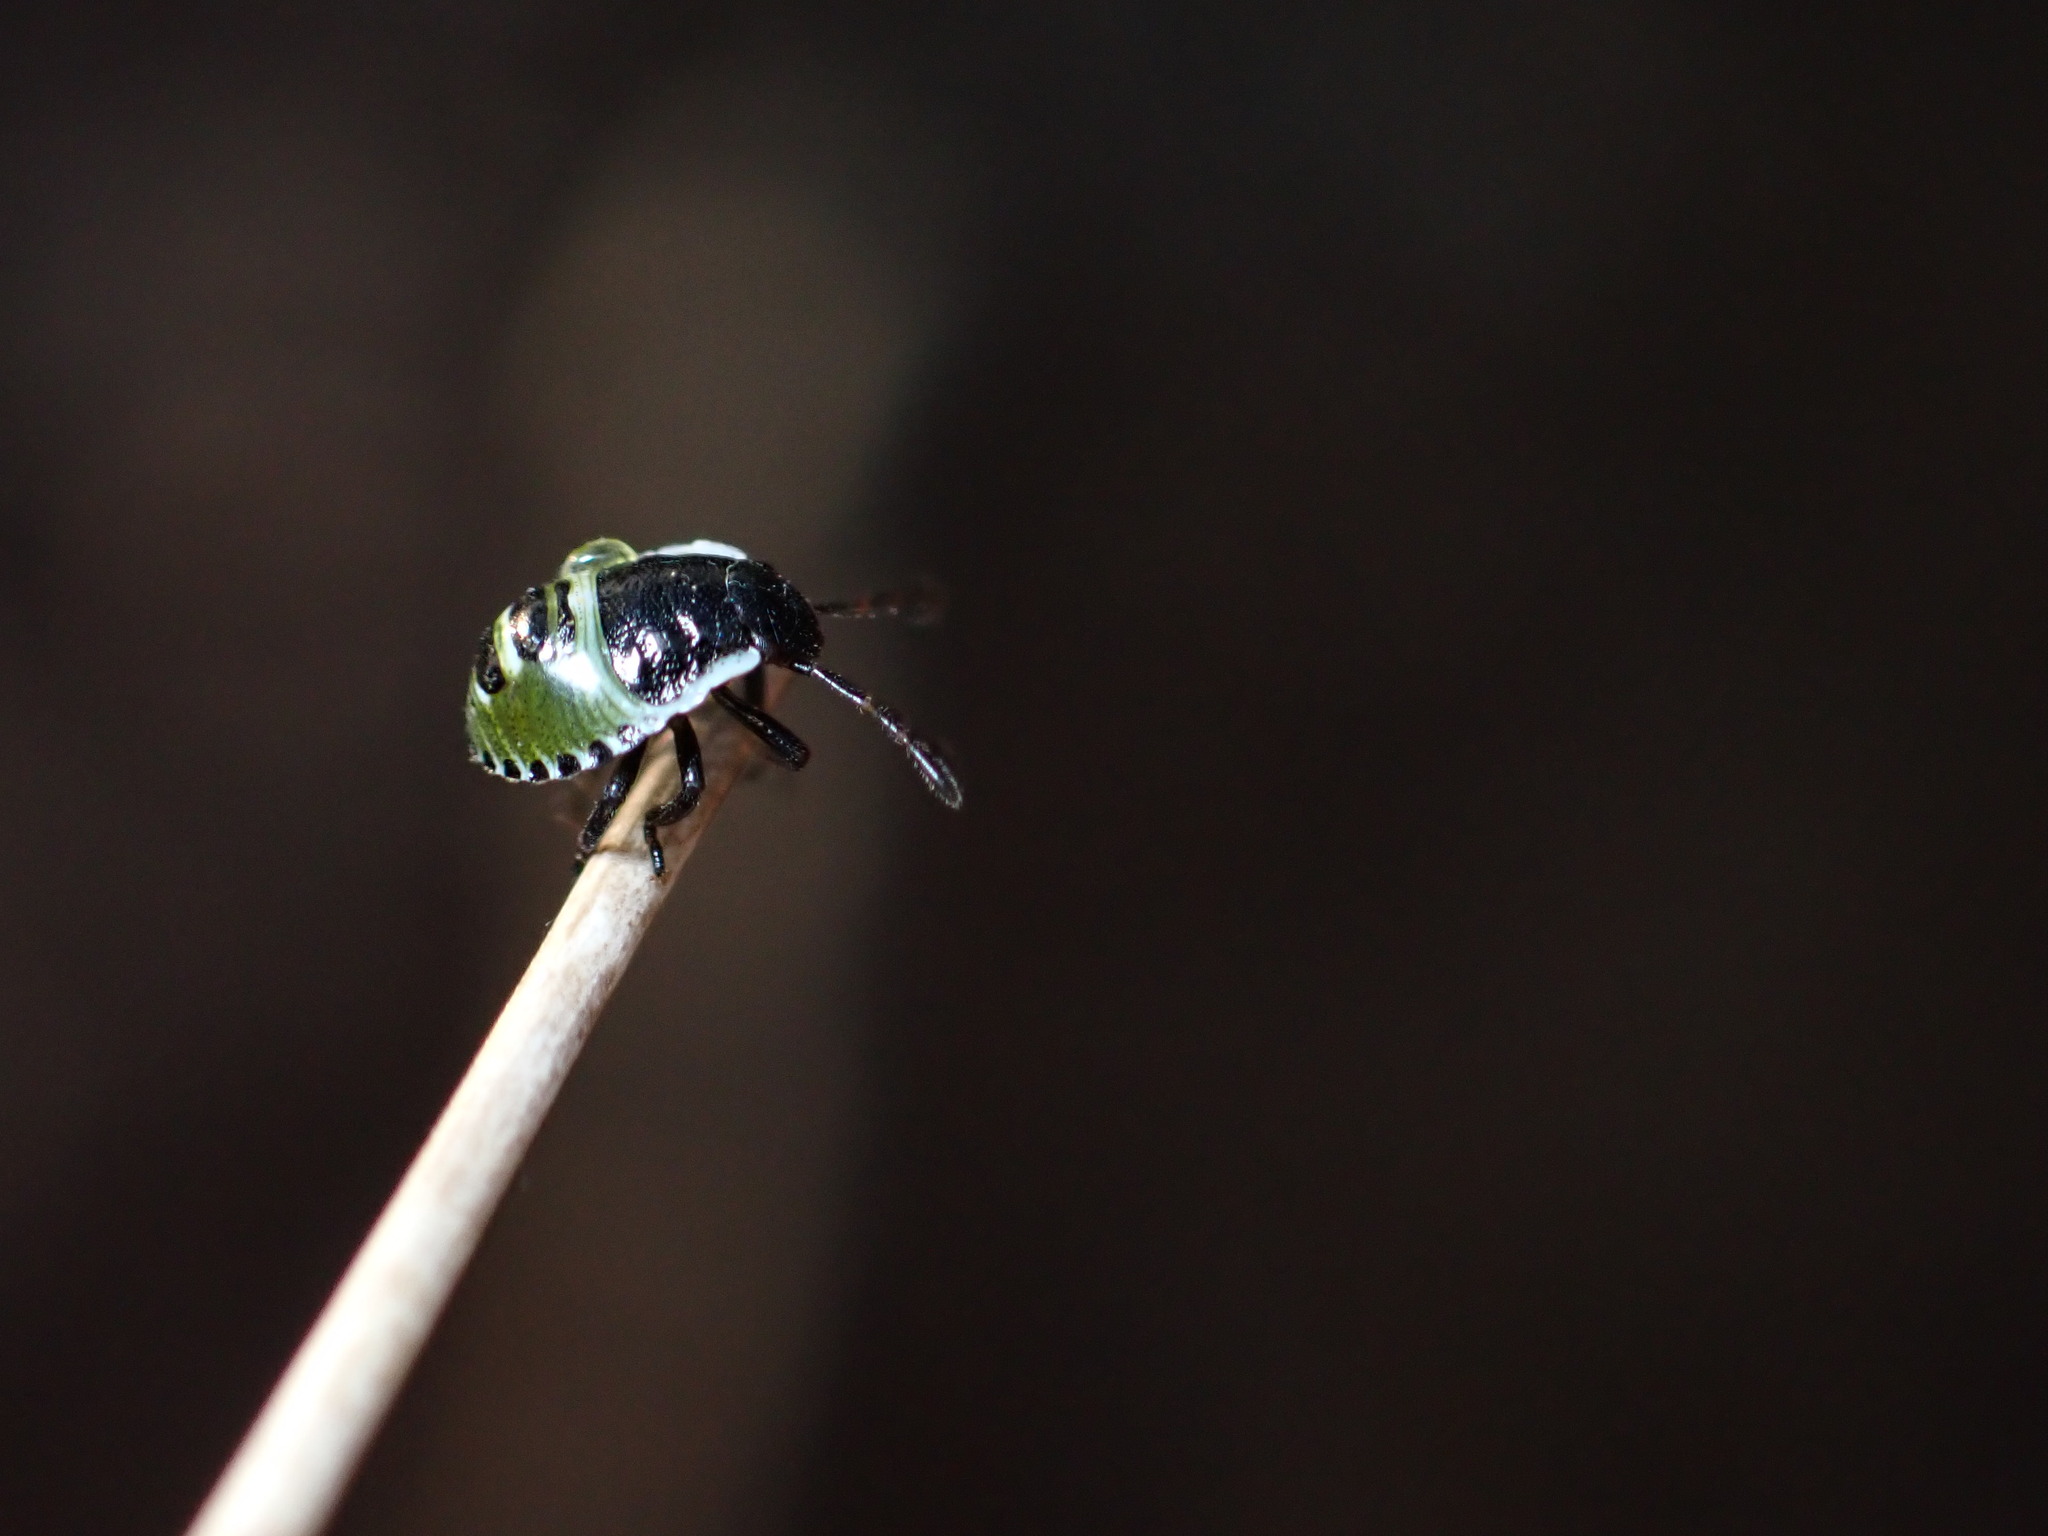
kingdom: Animalia
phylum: Arthropoda
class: Insecta
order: Hemiptera
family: Pentatomidae
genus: Palomena
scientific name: Palomena prasina
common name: Green shieldbug
